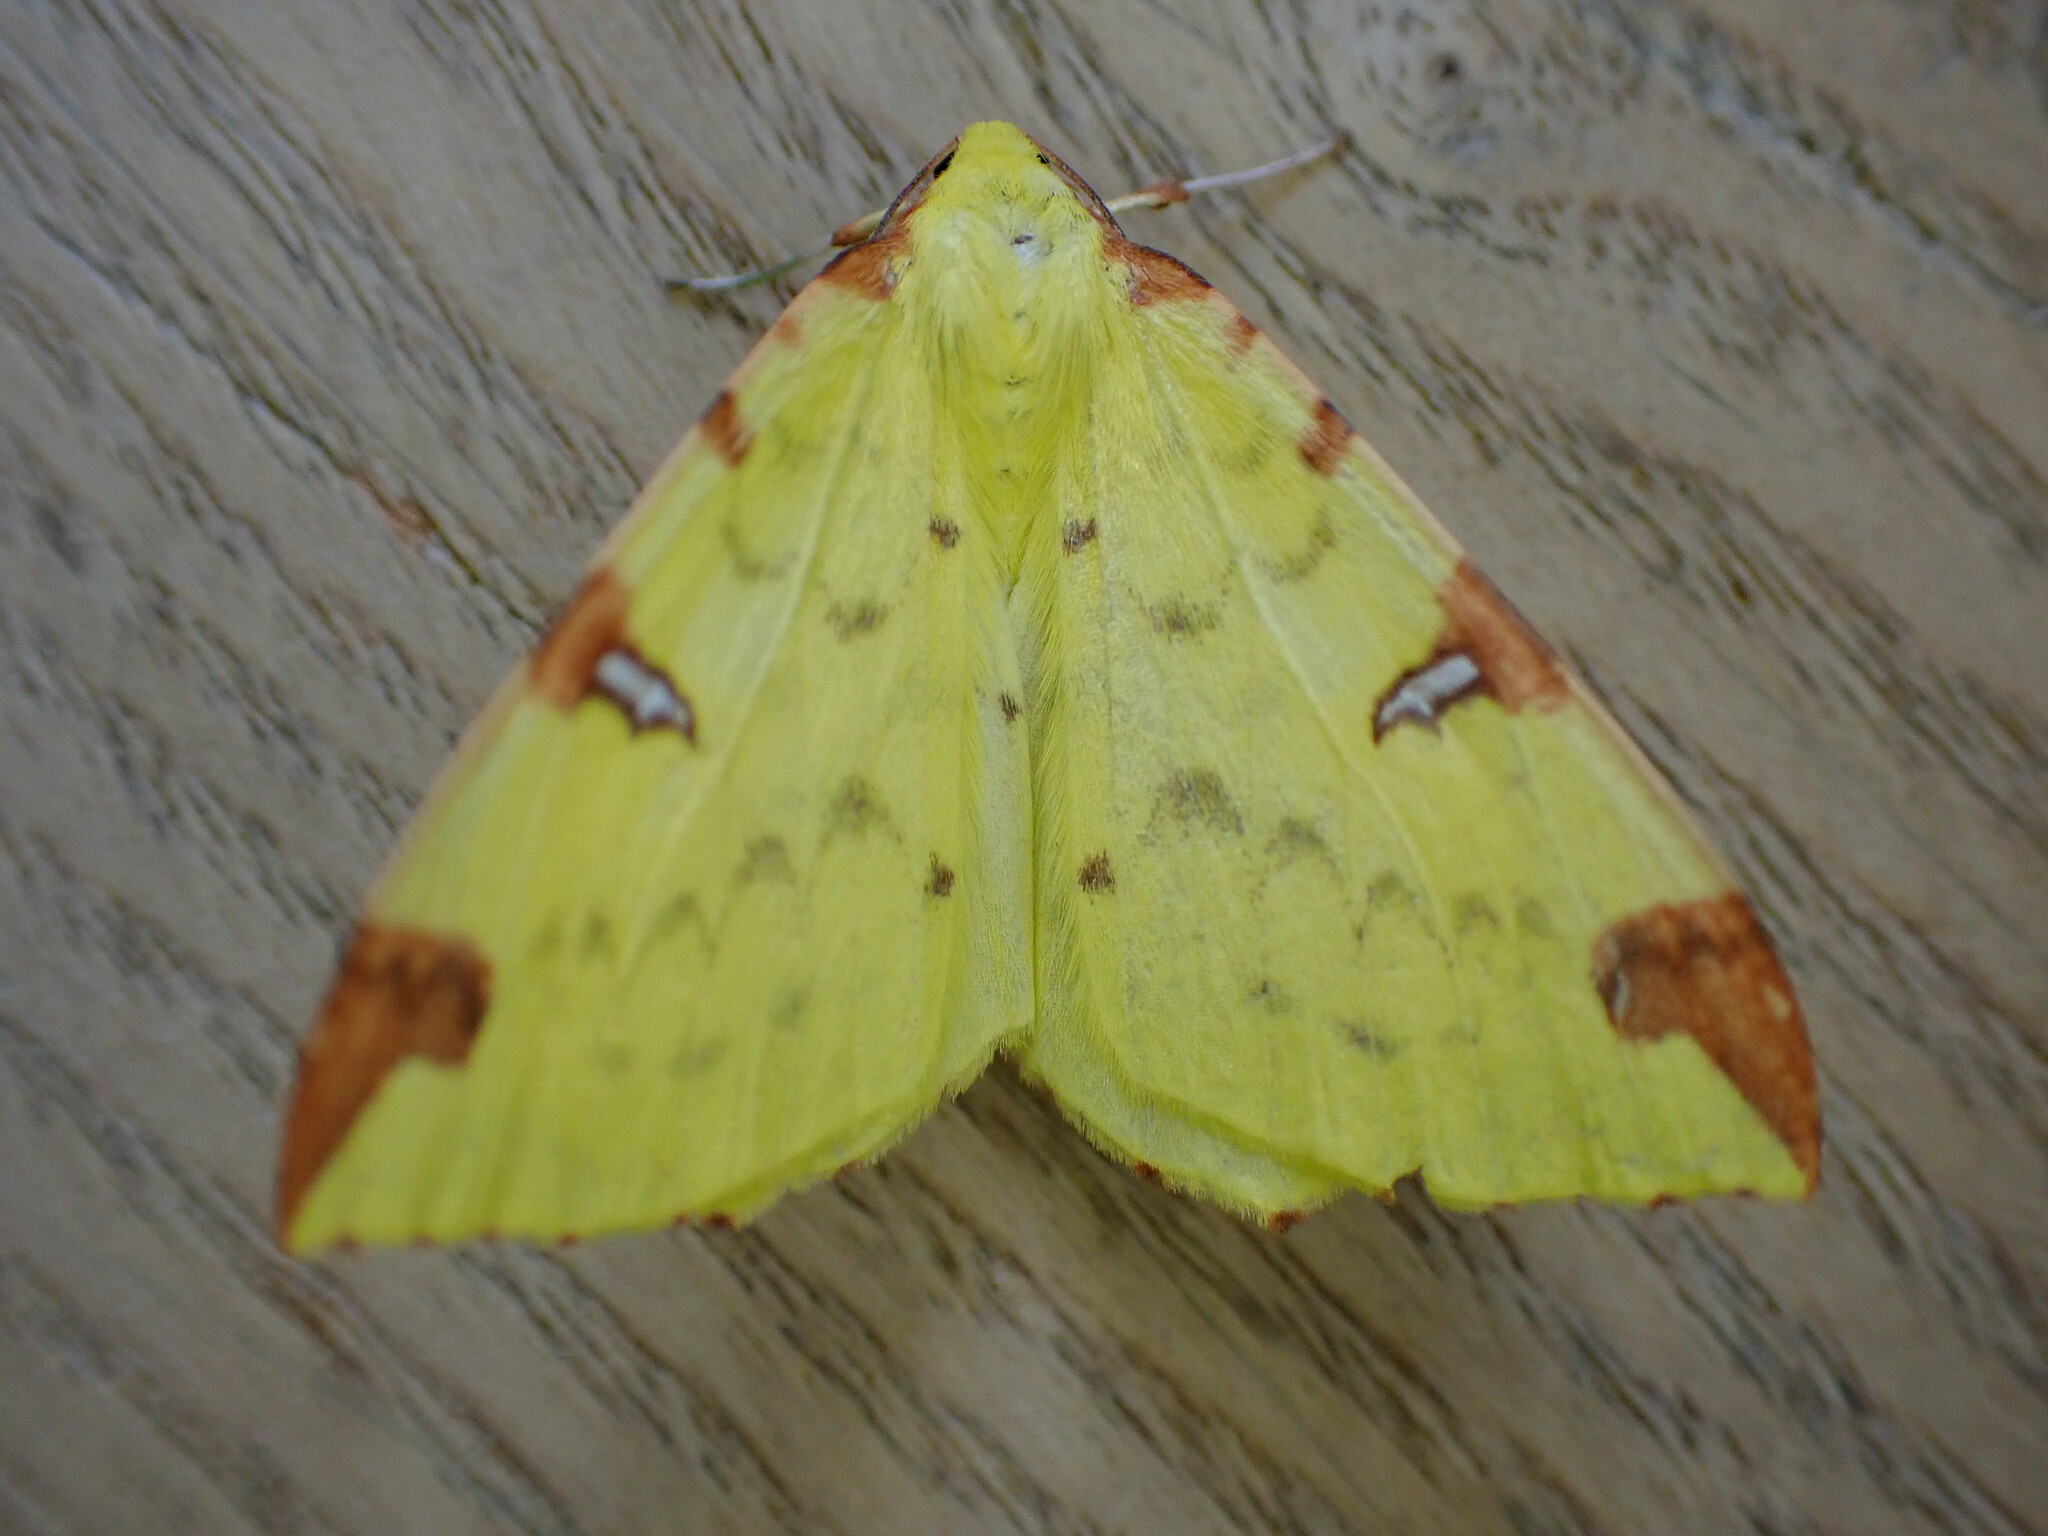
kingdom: Animalia
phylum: Arthropoda
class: Insecta
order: Lepidoptera
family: Geometridae
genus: Opisthograptis
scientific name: Opisthograptis luteolata
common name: Brimstone moth
